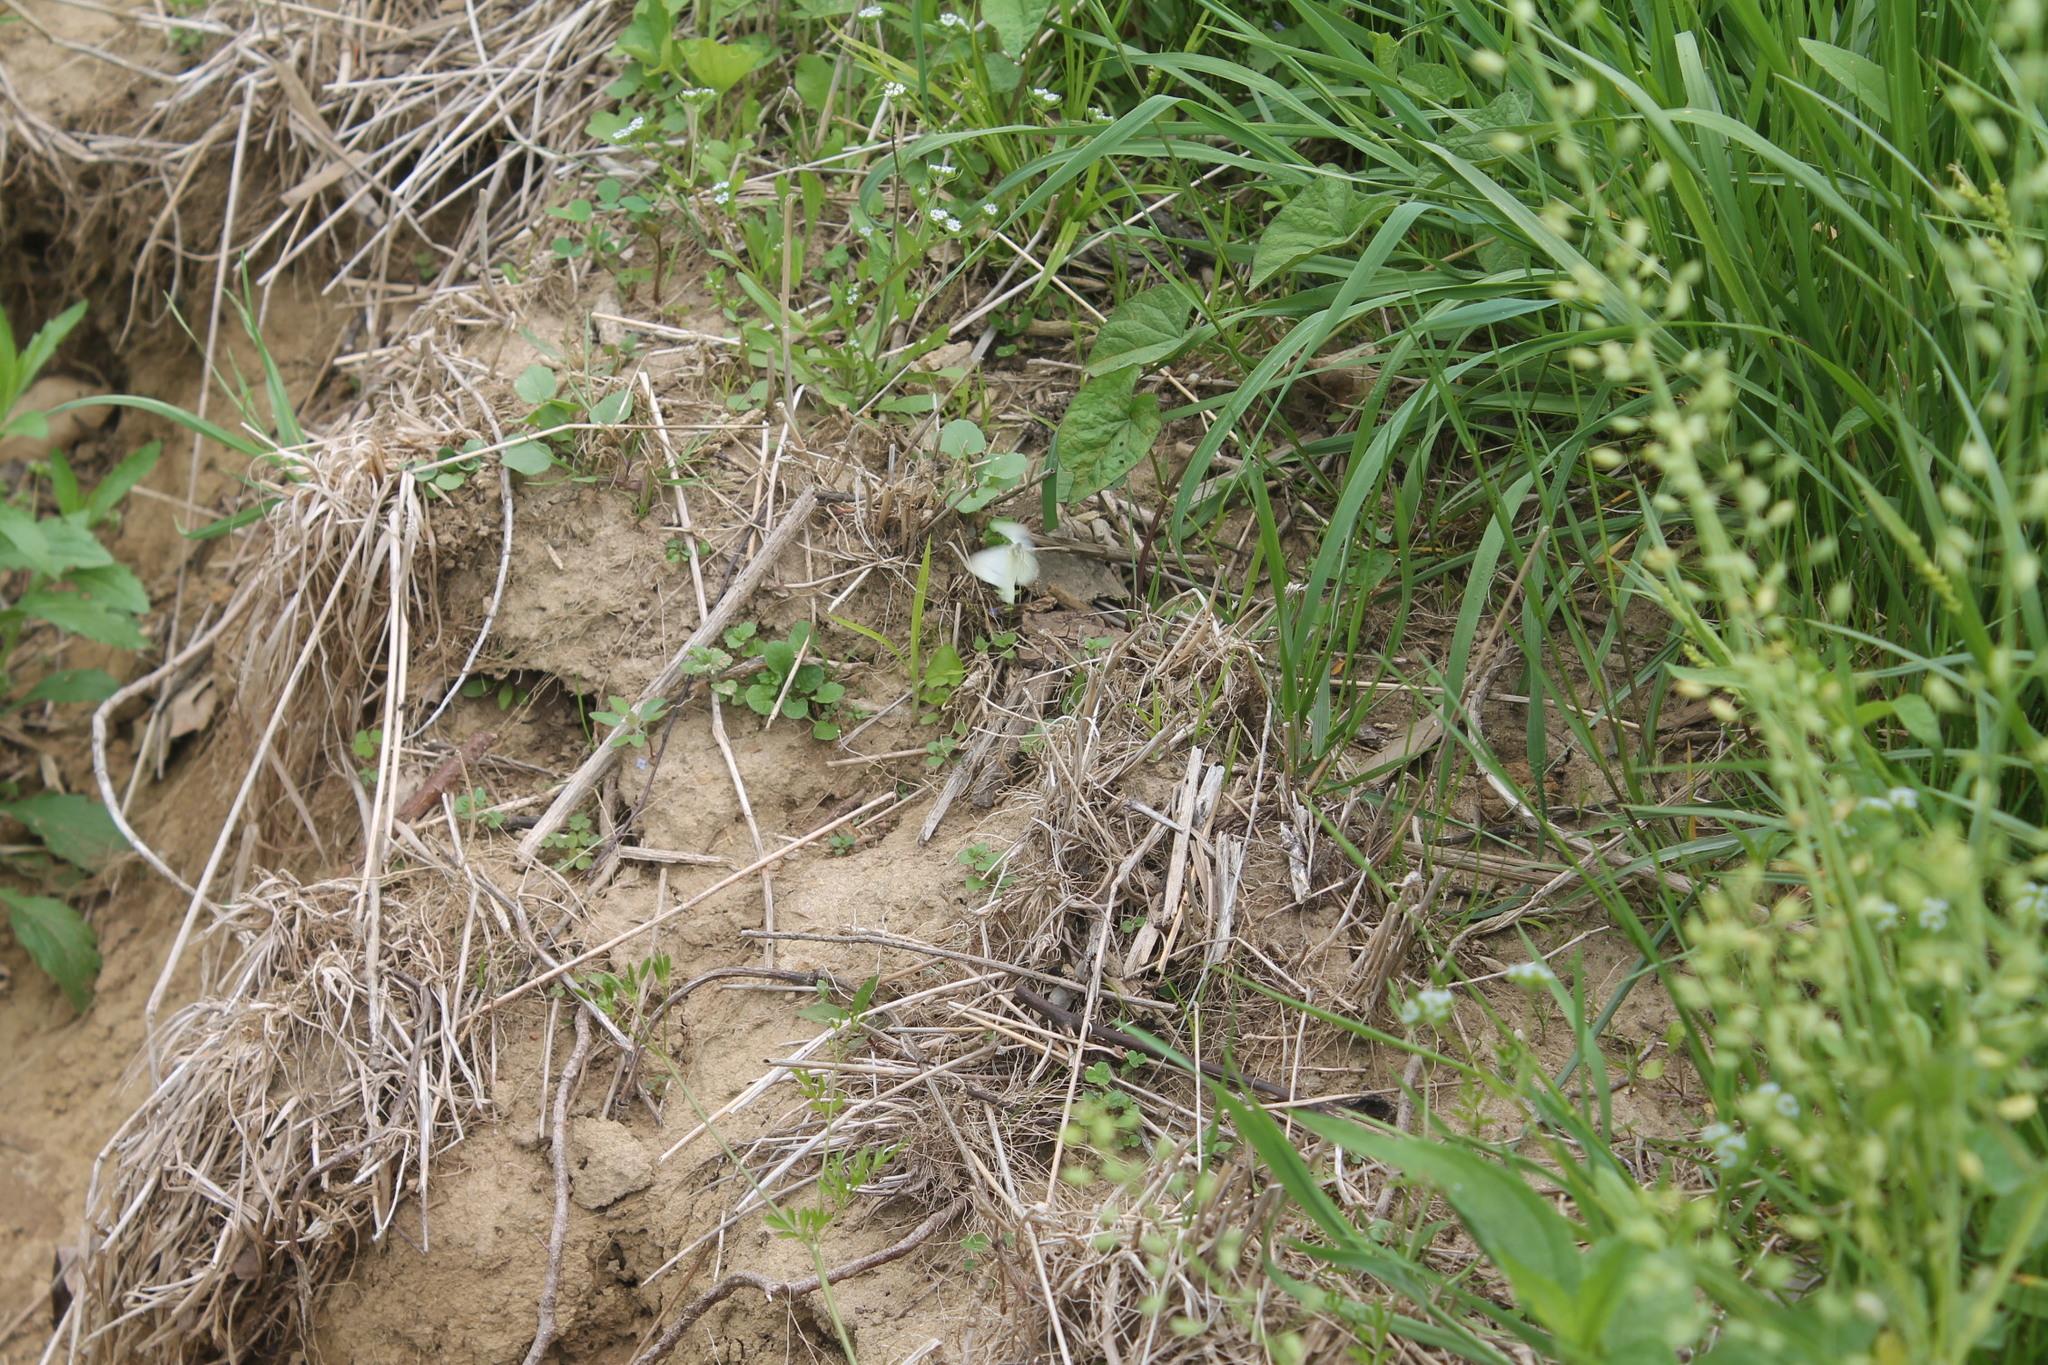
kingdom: Animalia
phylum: Arthropoda
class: Insecta
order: Lepidoptera
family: Pieridae
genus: Pieris
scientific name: Pieris rapae
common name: Small white
